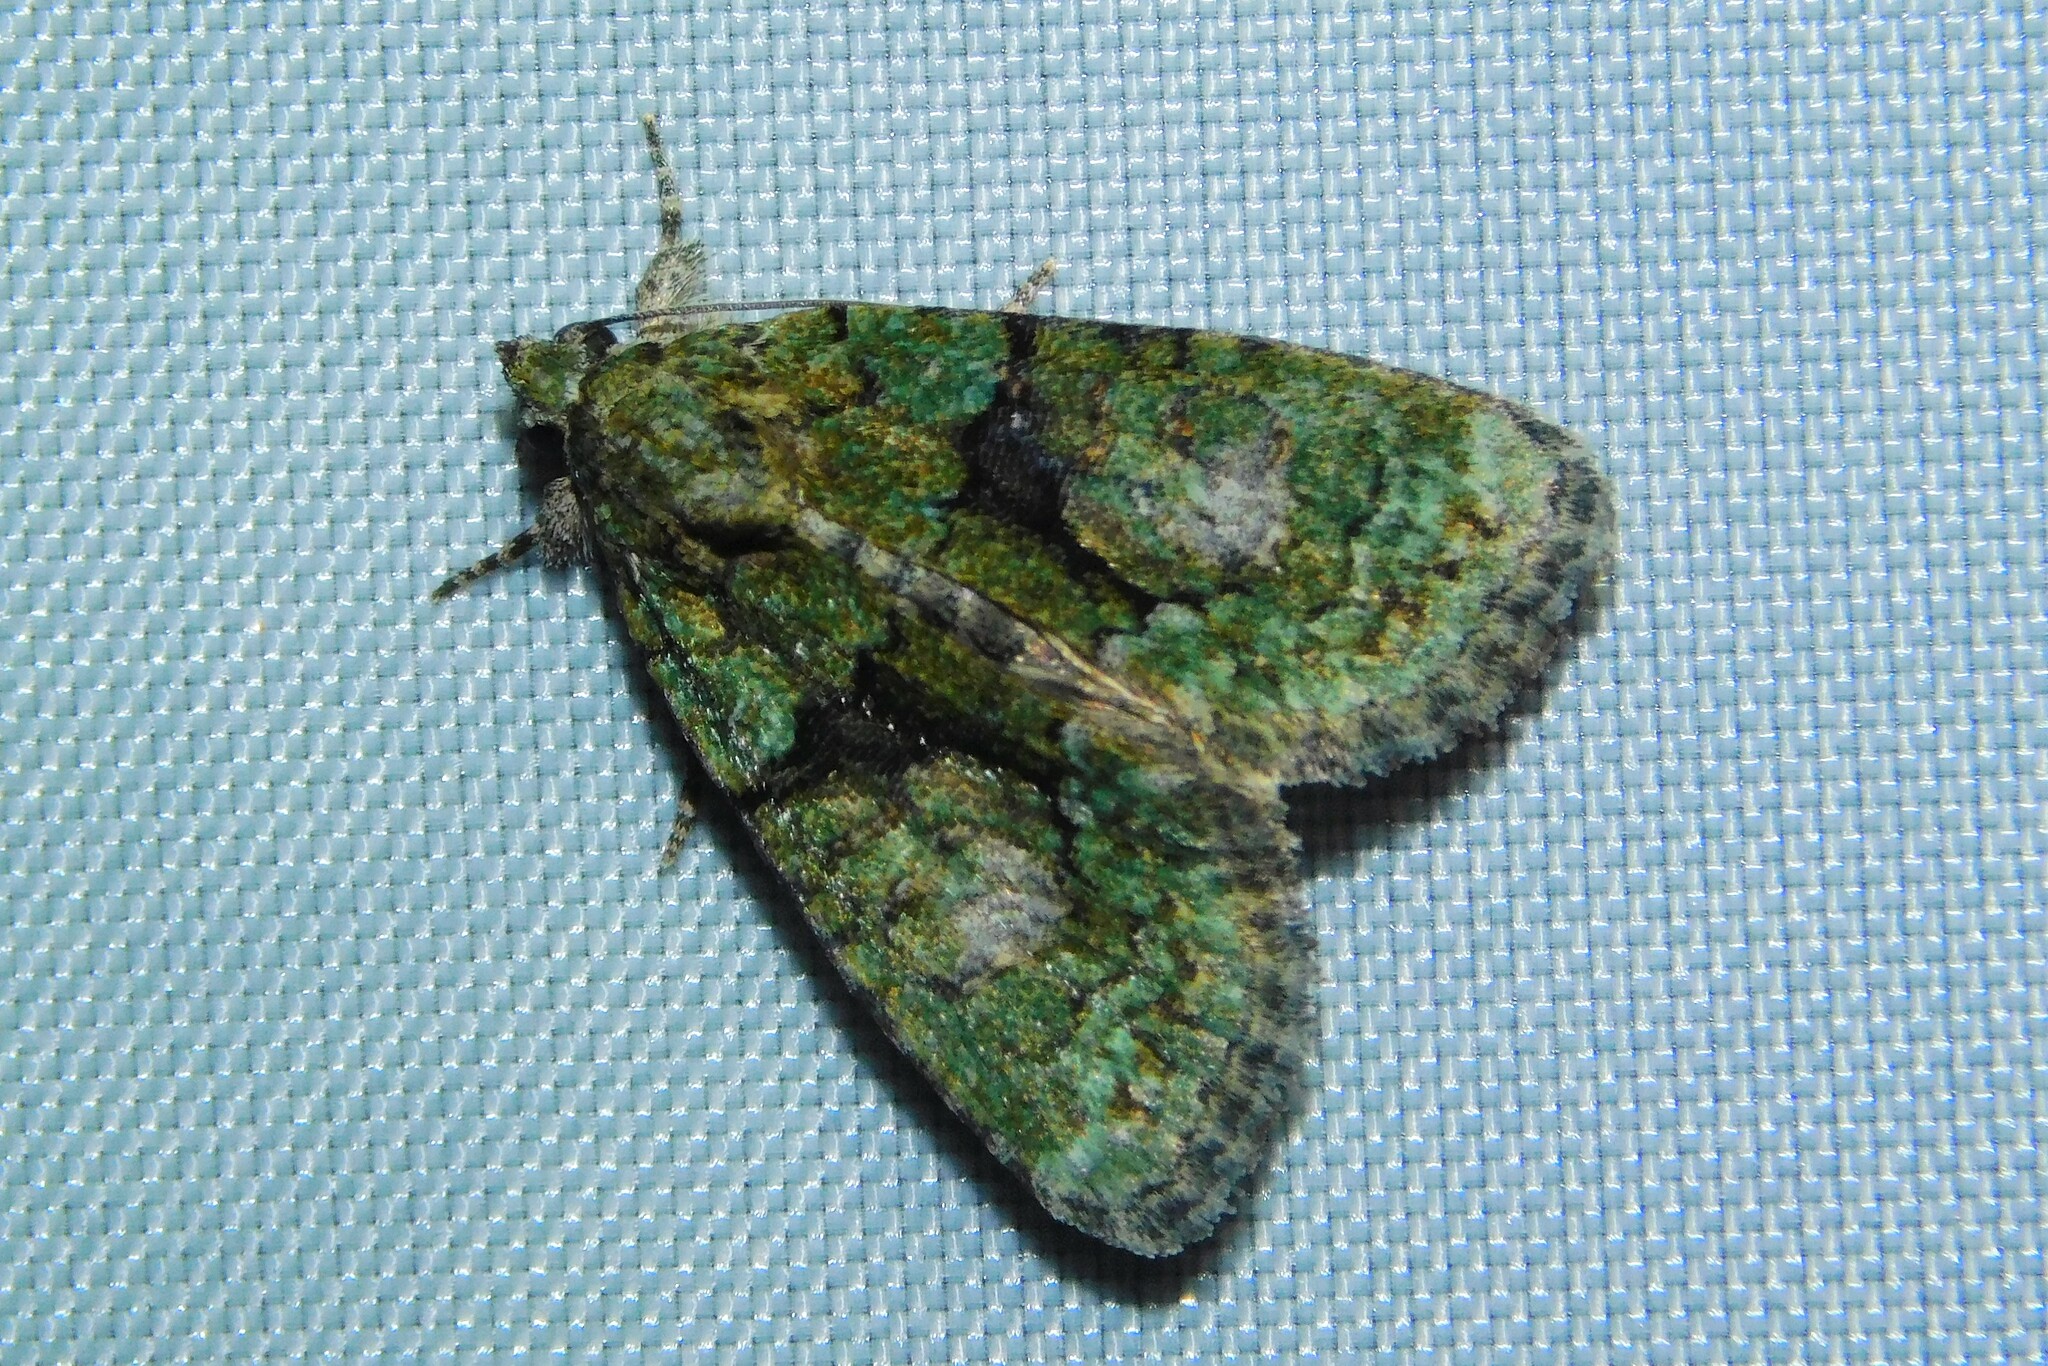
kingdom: Animalia
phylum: Arthropoda
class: Insecta
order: Lepidoptera
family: Noctuidae
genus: Cryphia
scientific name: Cryphia algae
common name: Tree-lichen beauty
